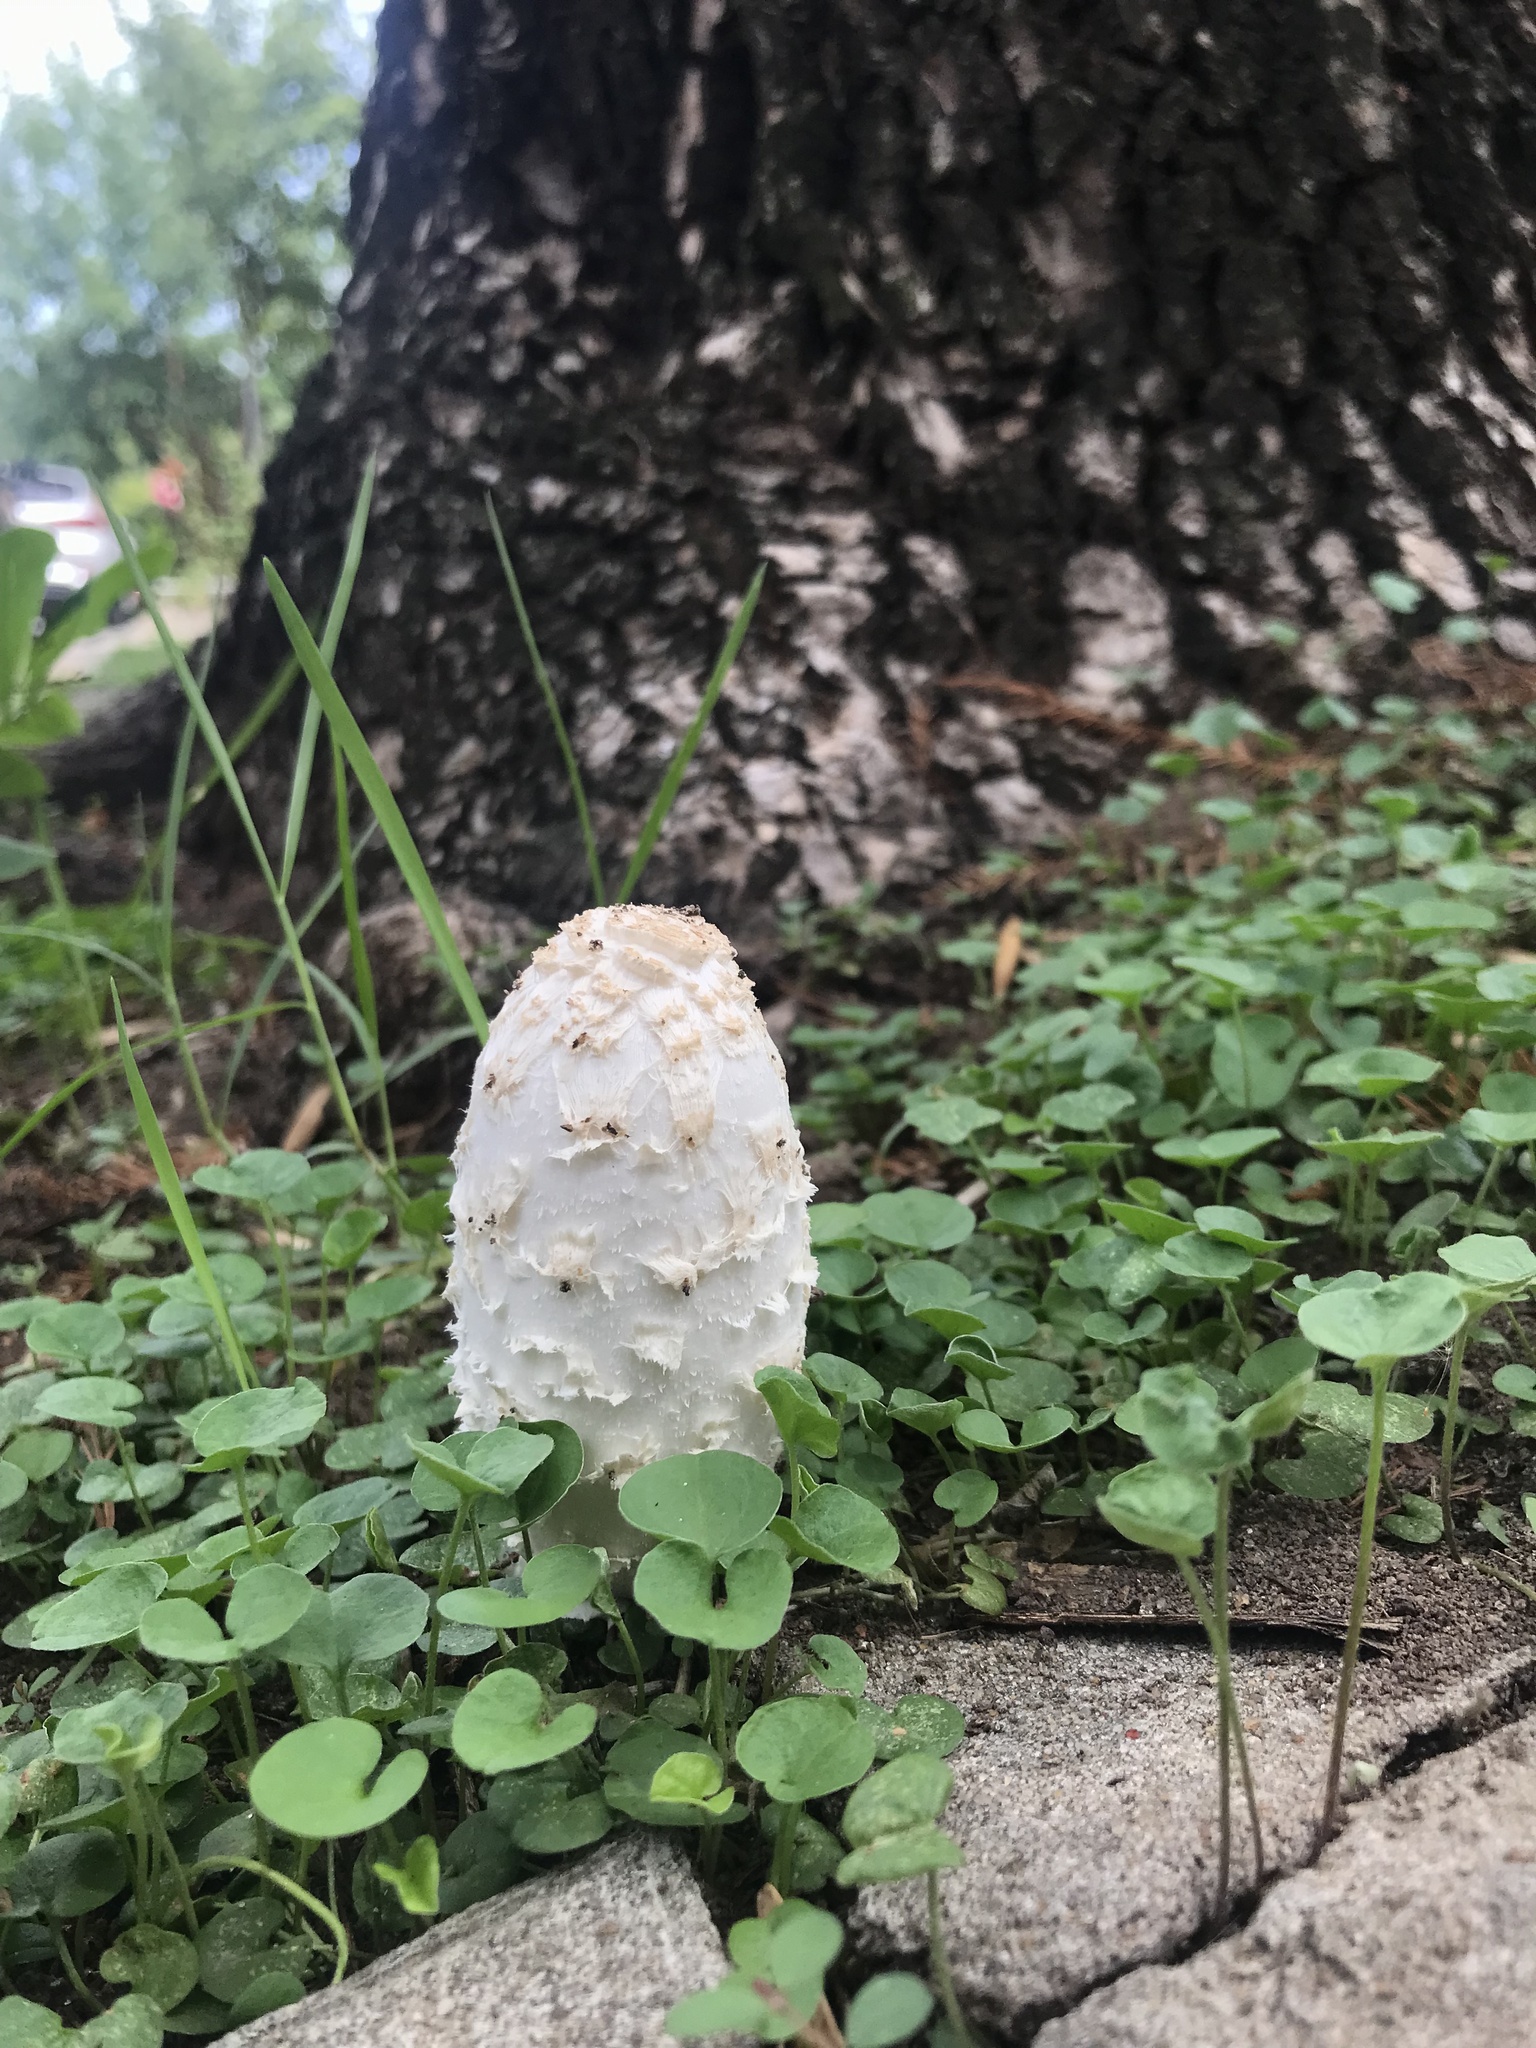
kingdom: Fungi
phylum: Basidiomycota
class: Agaricomycetes
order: Agaricales
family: Agaricaceae
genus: Coprinus
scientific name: Coprinus comatus
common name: Lawyer's wig
